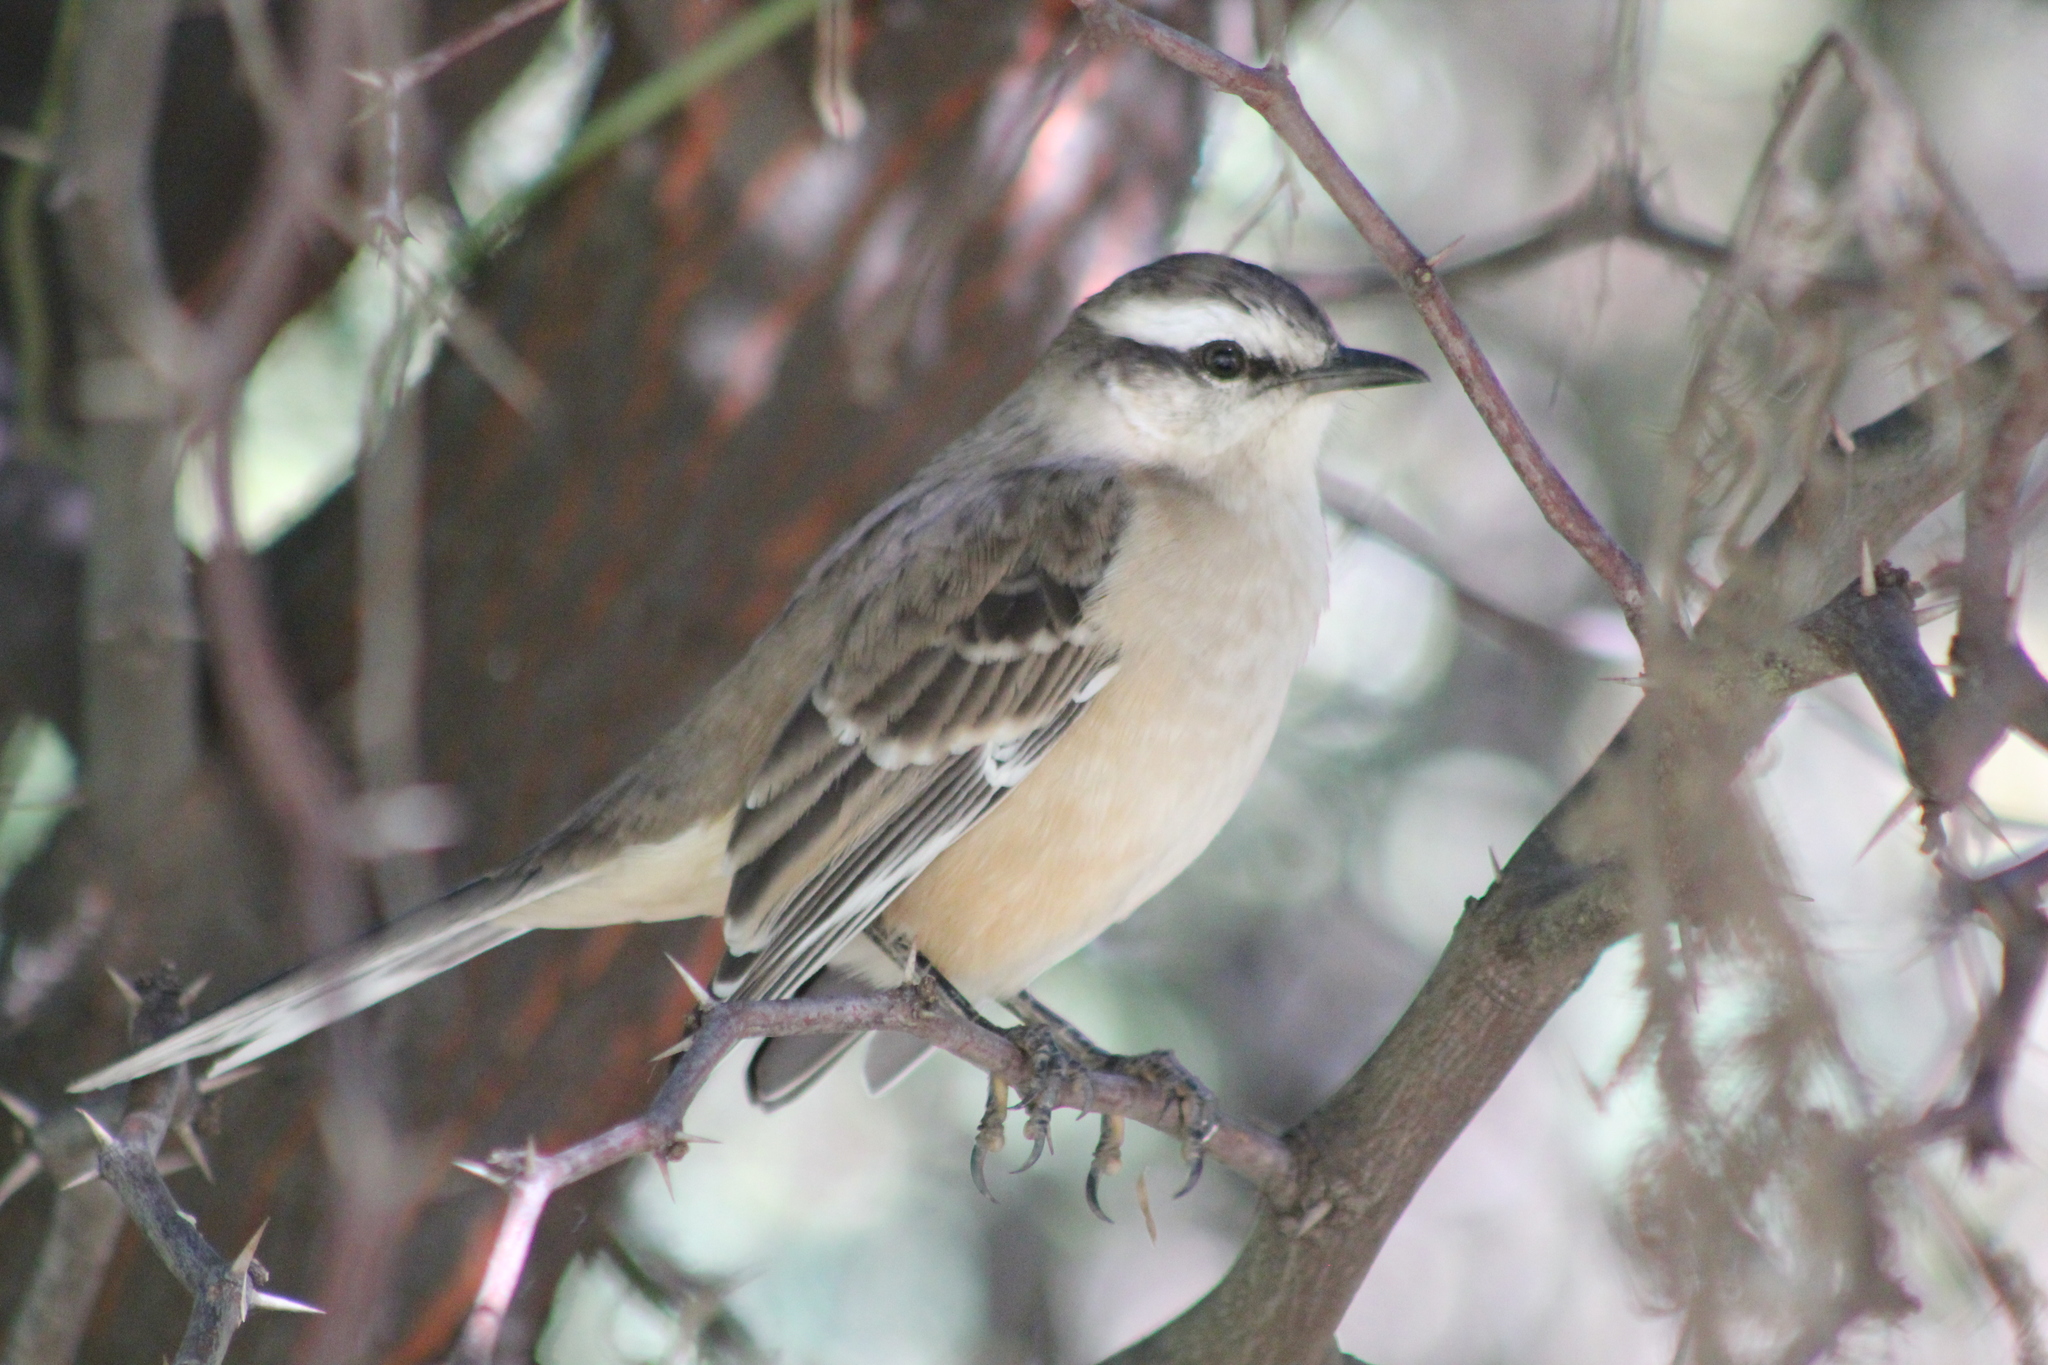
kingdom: Animalia
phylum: Chordata
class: Aves
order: Passeriformes
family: Mimidae
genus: Mimus
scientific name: Mimus saturninus
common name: Chalk-browed mockingbird
